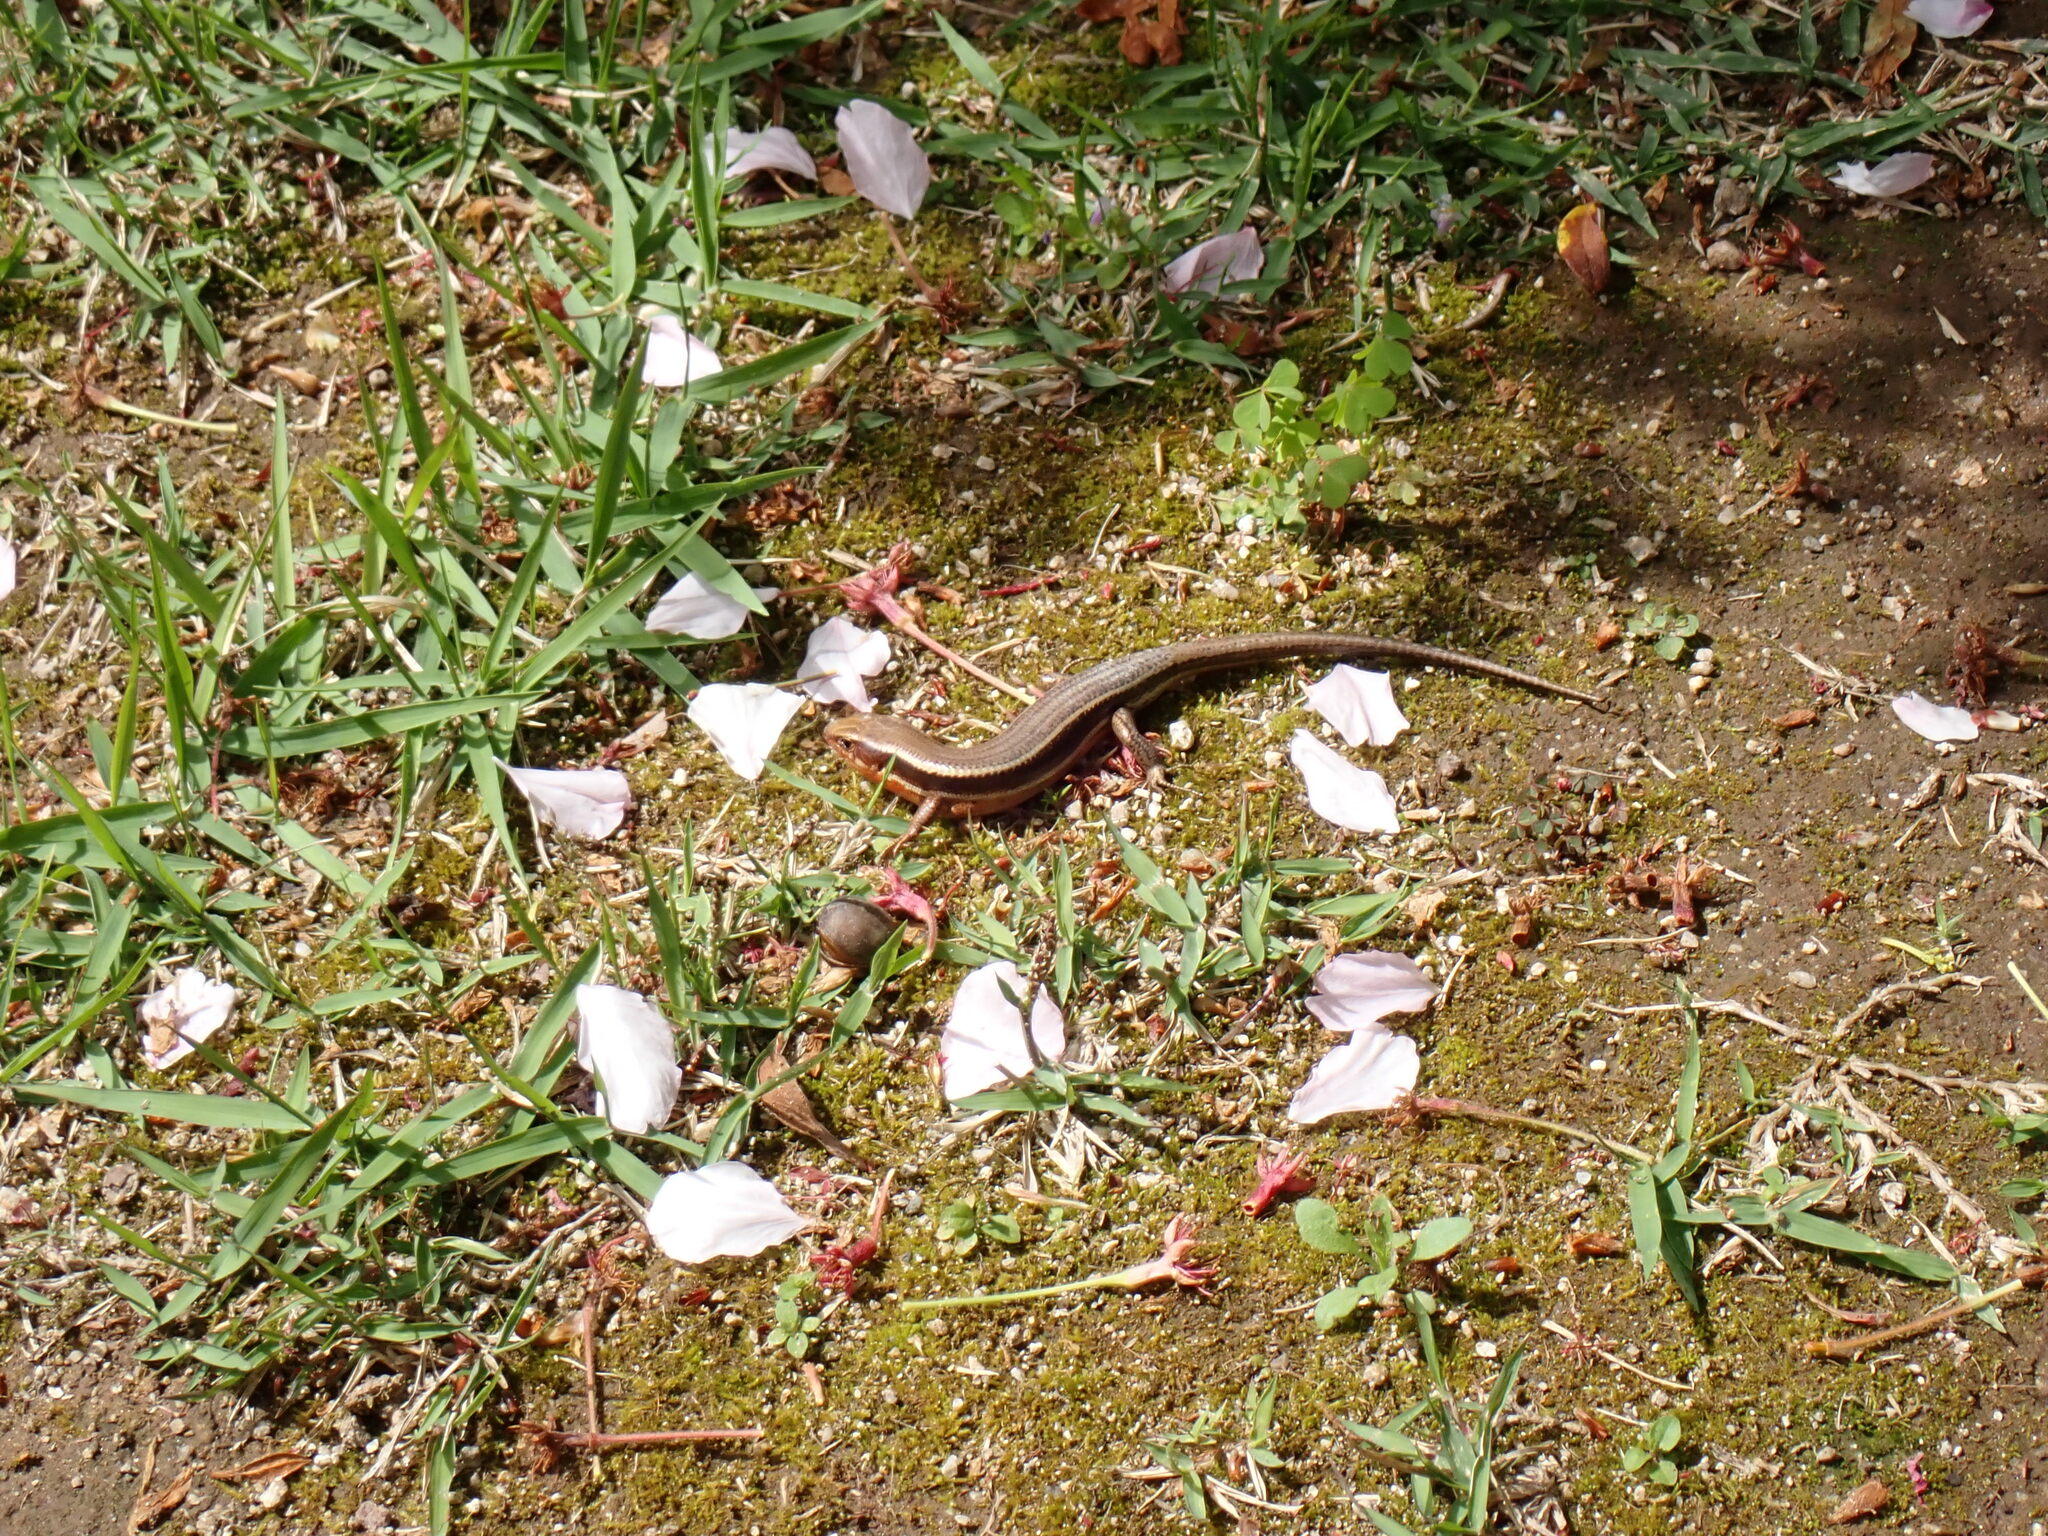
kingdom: Animalia
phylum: Chordata
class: Squamata
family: Scincidae
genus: Plestiodon
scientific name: Plestiodon japonicus
